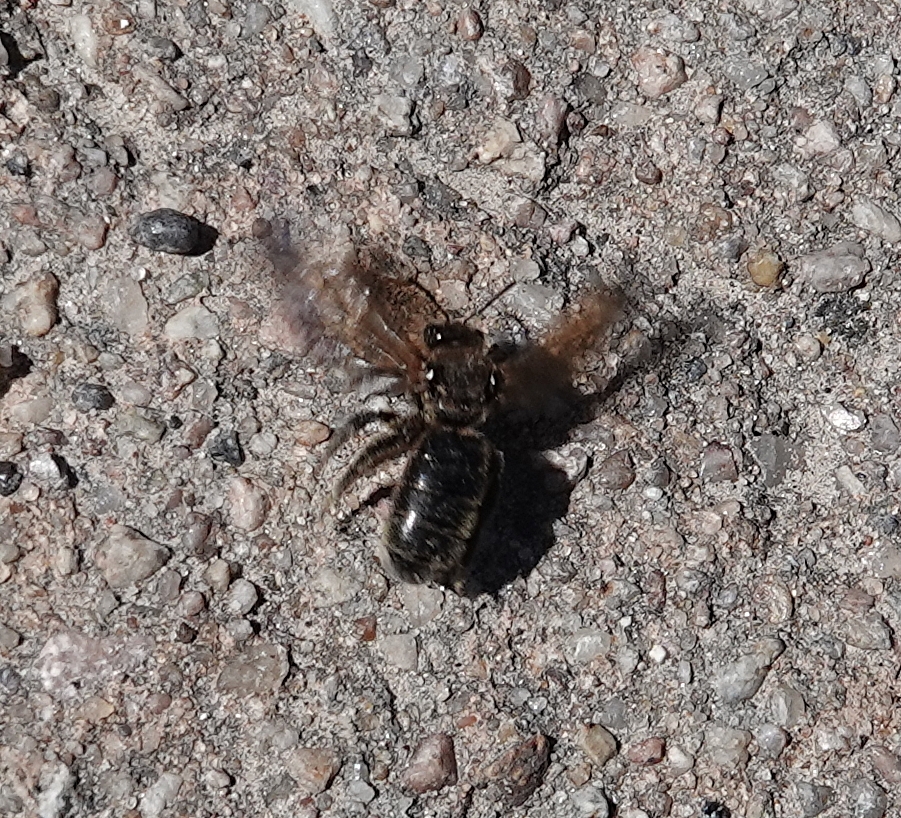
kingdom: Animalia
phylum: Arthropoda
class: Insecta
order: Hymenoptera
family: Halictidae
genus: Dieunomia
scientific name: Dieunomia heteropoda
